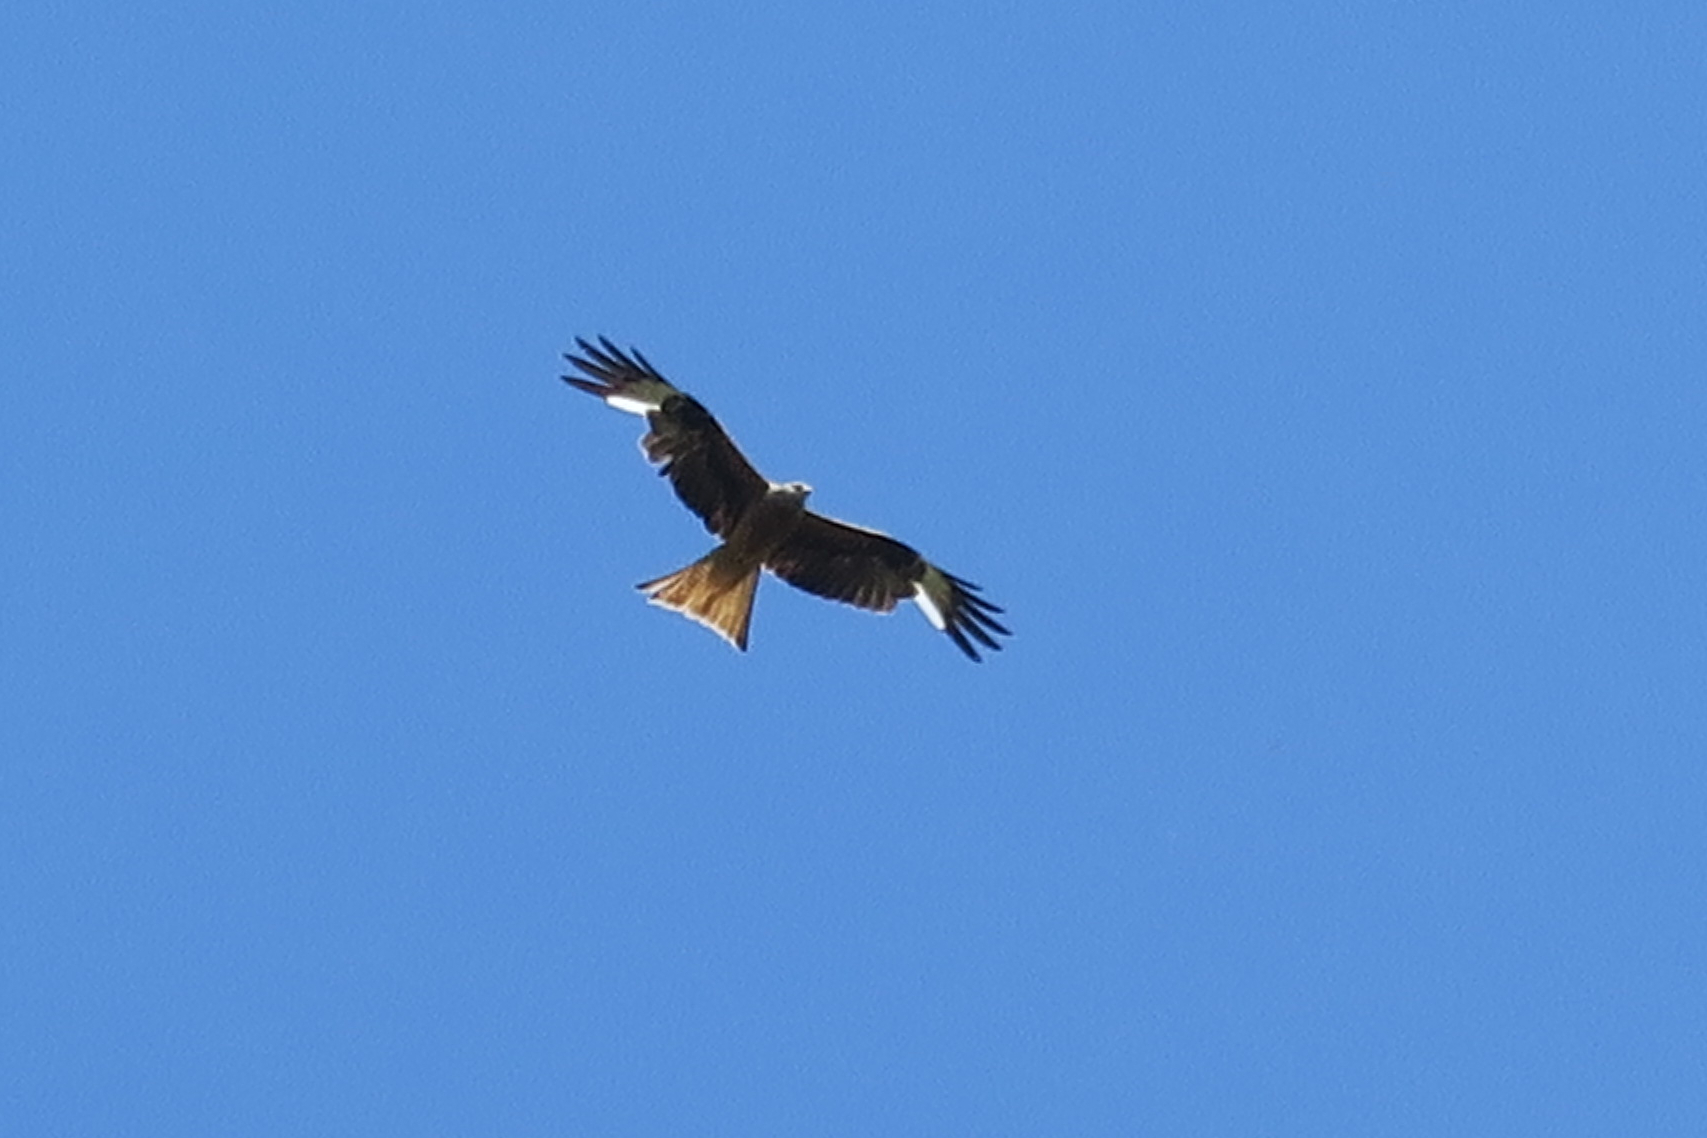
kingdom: Animalia
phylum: Chordata
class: Aves
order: Accipitriformes
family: Accipitridae
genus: Milvus
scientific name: Milvus milvus
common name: Red kite
